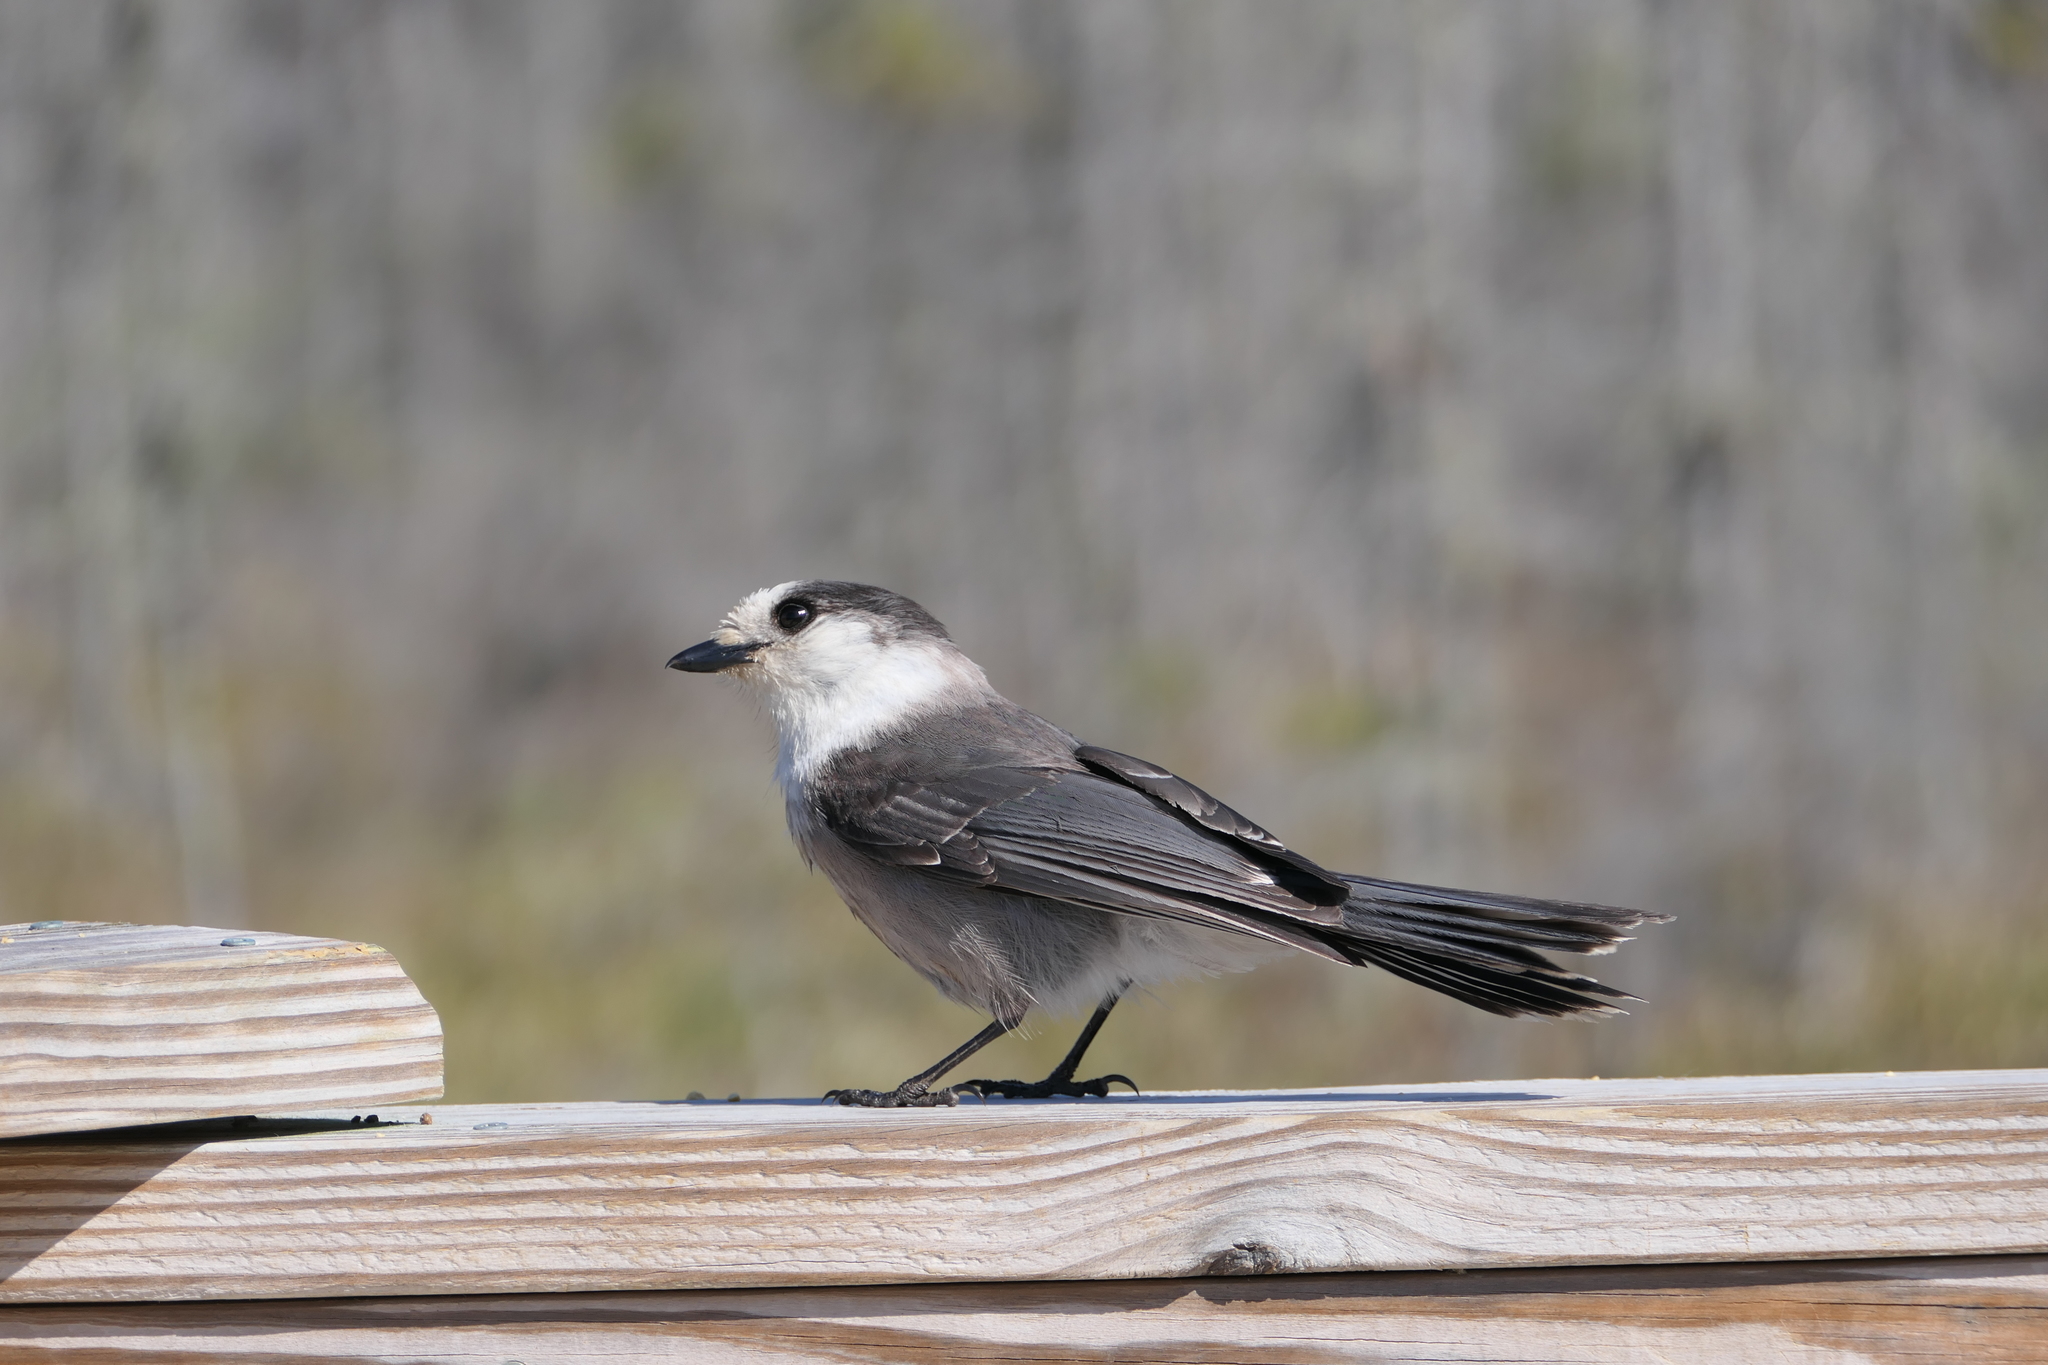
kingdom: Animalia
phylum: Chordata
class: Aves
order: Passeriformes
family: Corvidae
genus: Perisoreus
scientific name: Perisoreus canadensis
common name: Gray jay
